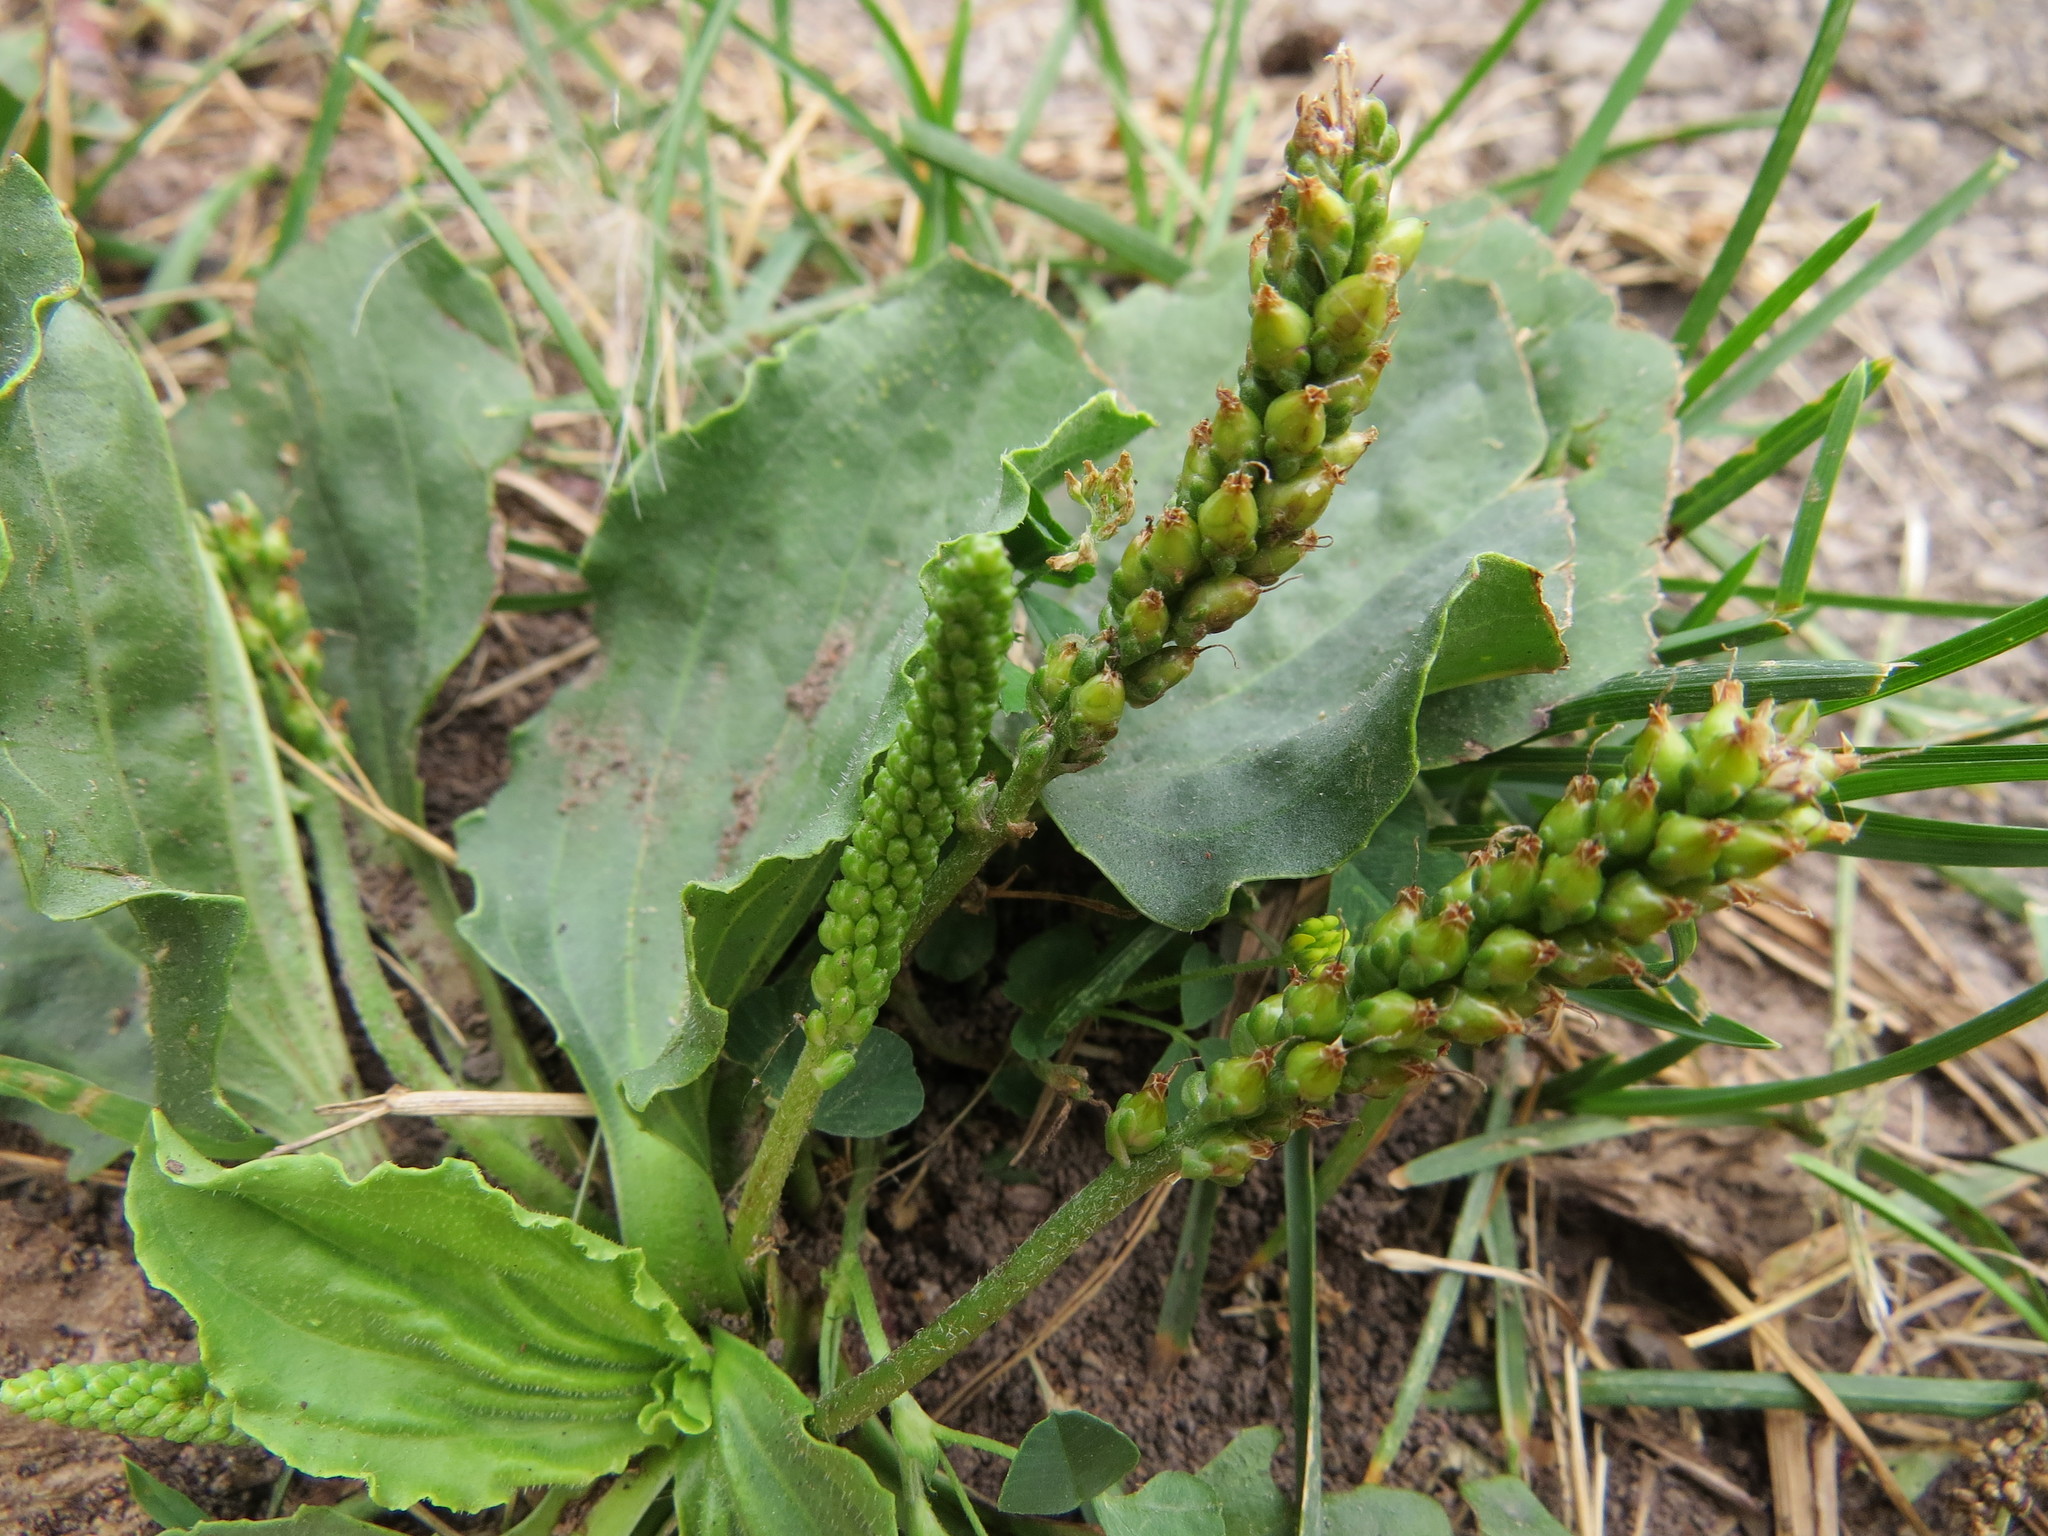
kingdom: Plantae
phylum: Tracheophyta
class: Magnoliopsida
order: Lamiales
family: Plantaginaceae
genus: Plantago
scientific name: Plantago major
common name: Common plantain
